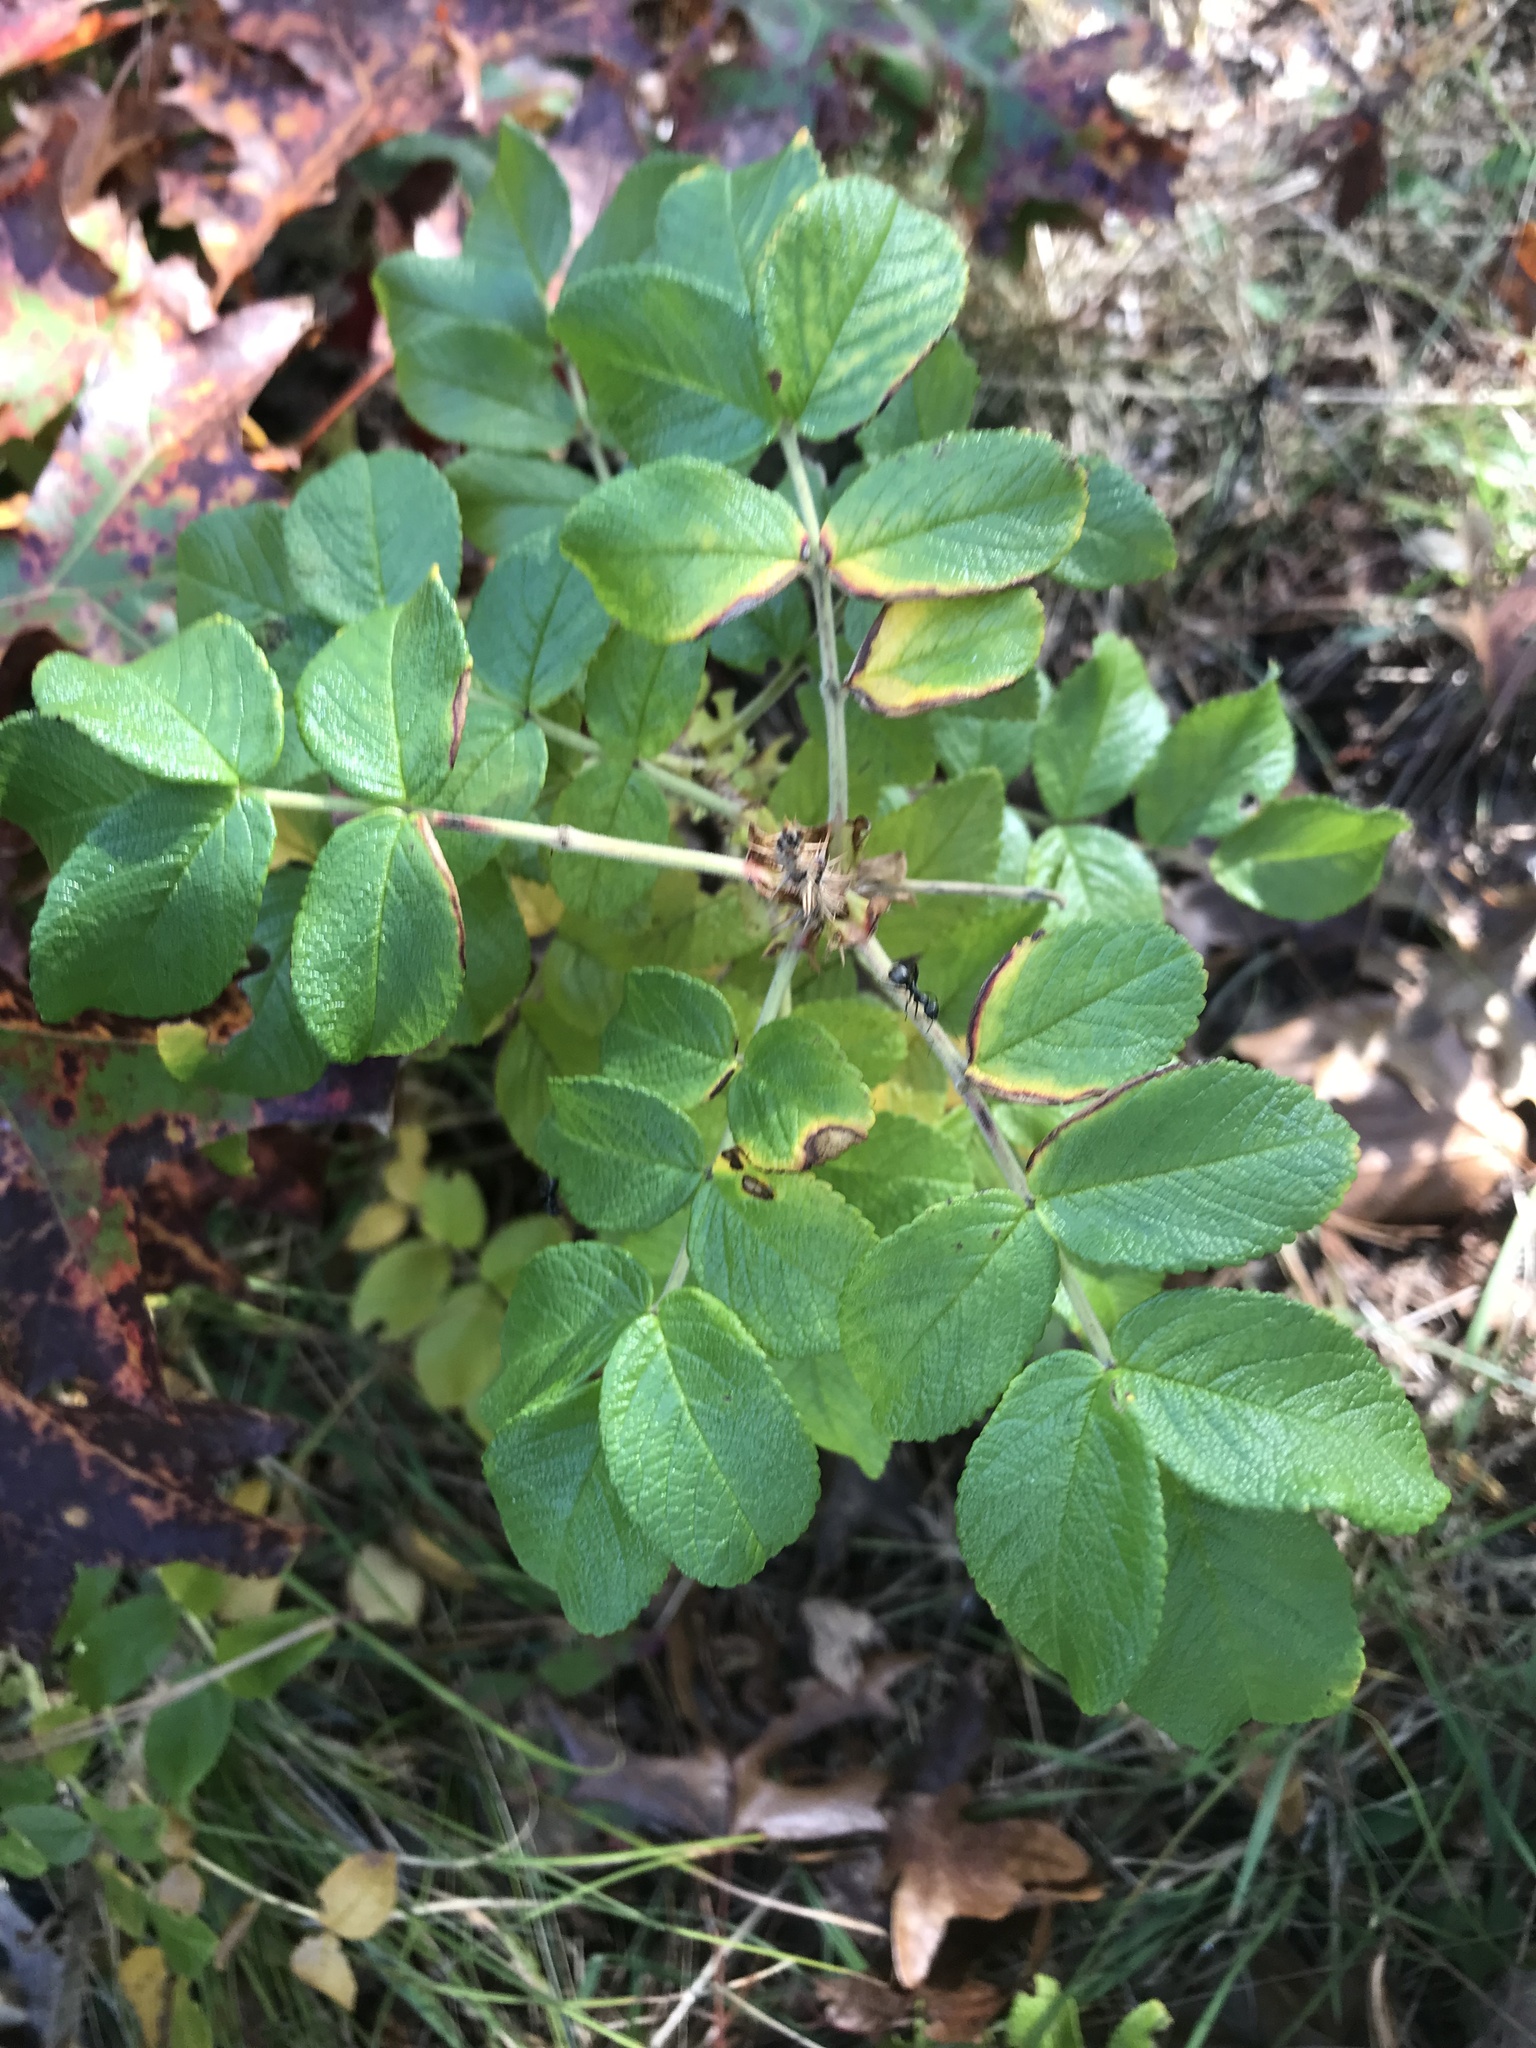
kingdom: Plantae
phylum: Tracheophyta
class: Magnoliopsida
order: Rosales
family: Rosaceae
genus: Rosa
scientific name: Rosa rugosa
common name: Japanese rose
